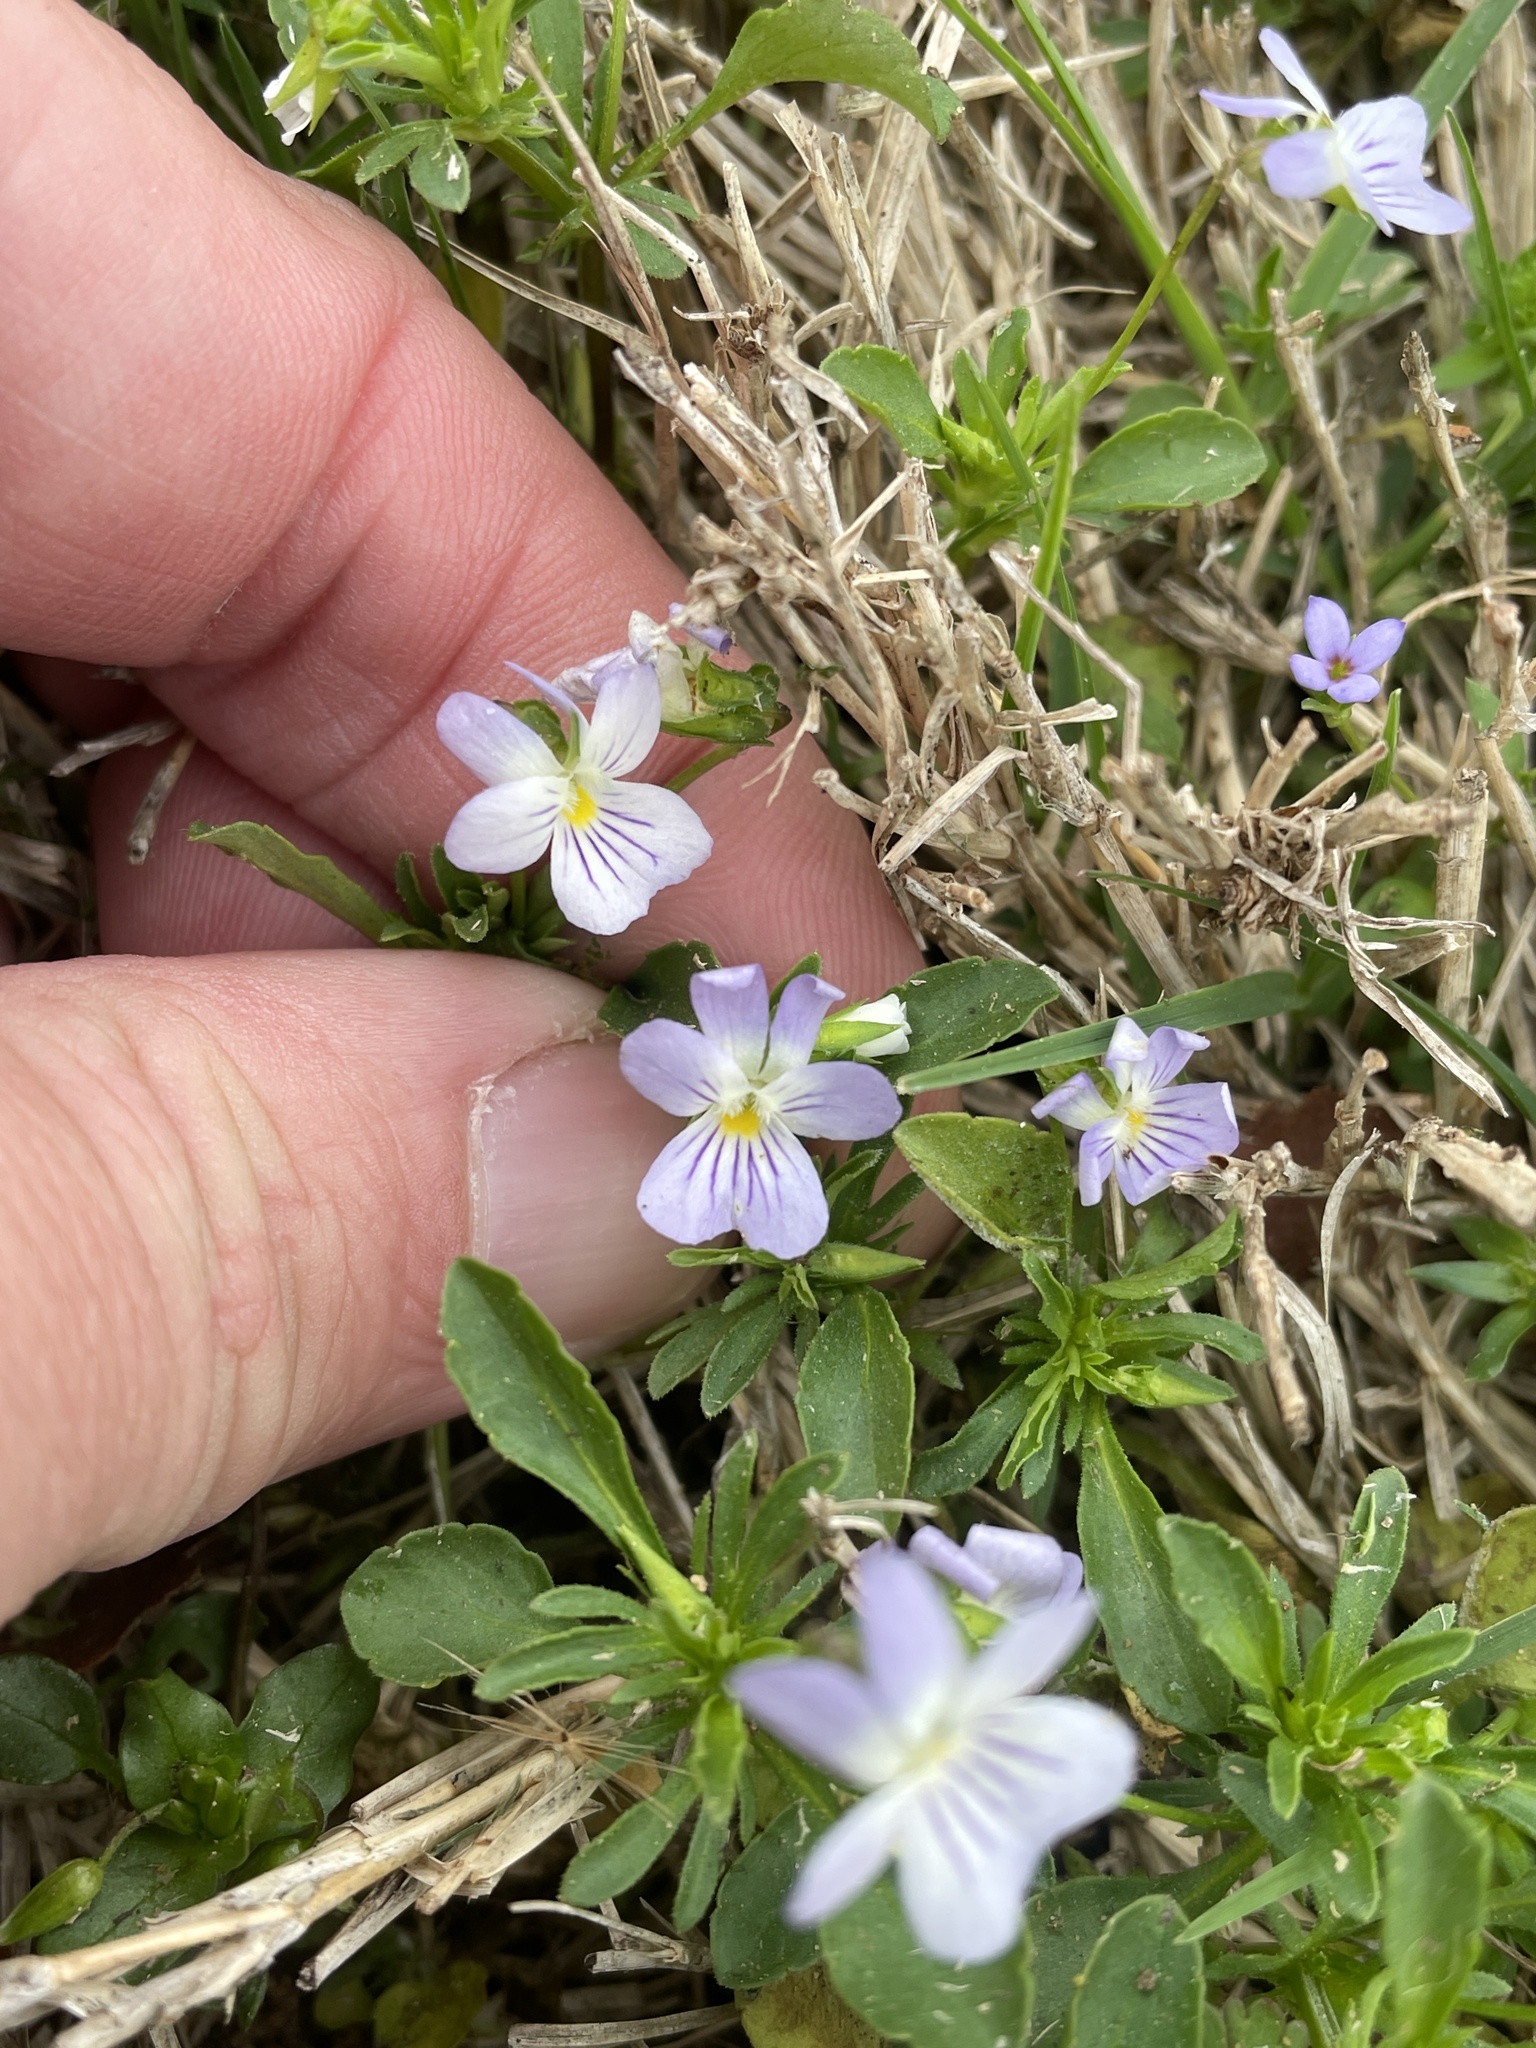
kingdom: Plantae
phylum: Tracheophyta
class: Magnoliopsida
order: Malpighiales
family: Violaceae
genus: Viola
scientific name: Viola rafinesquei
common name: American field pansy
